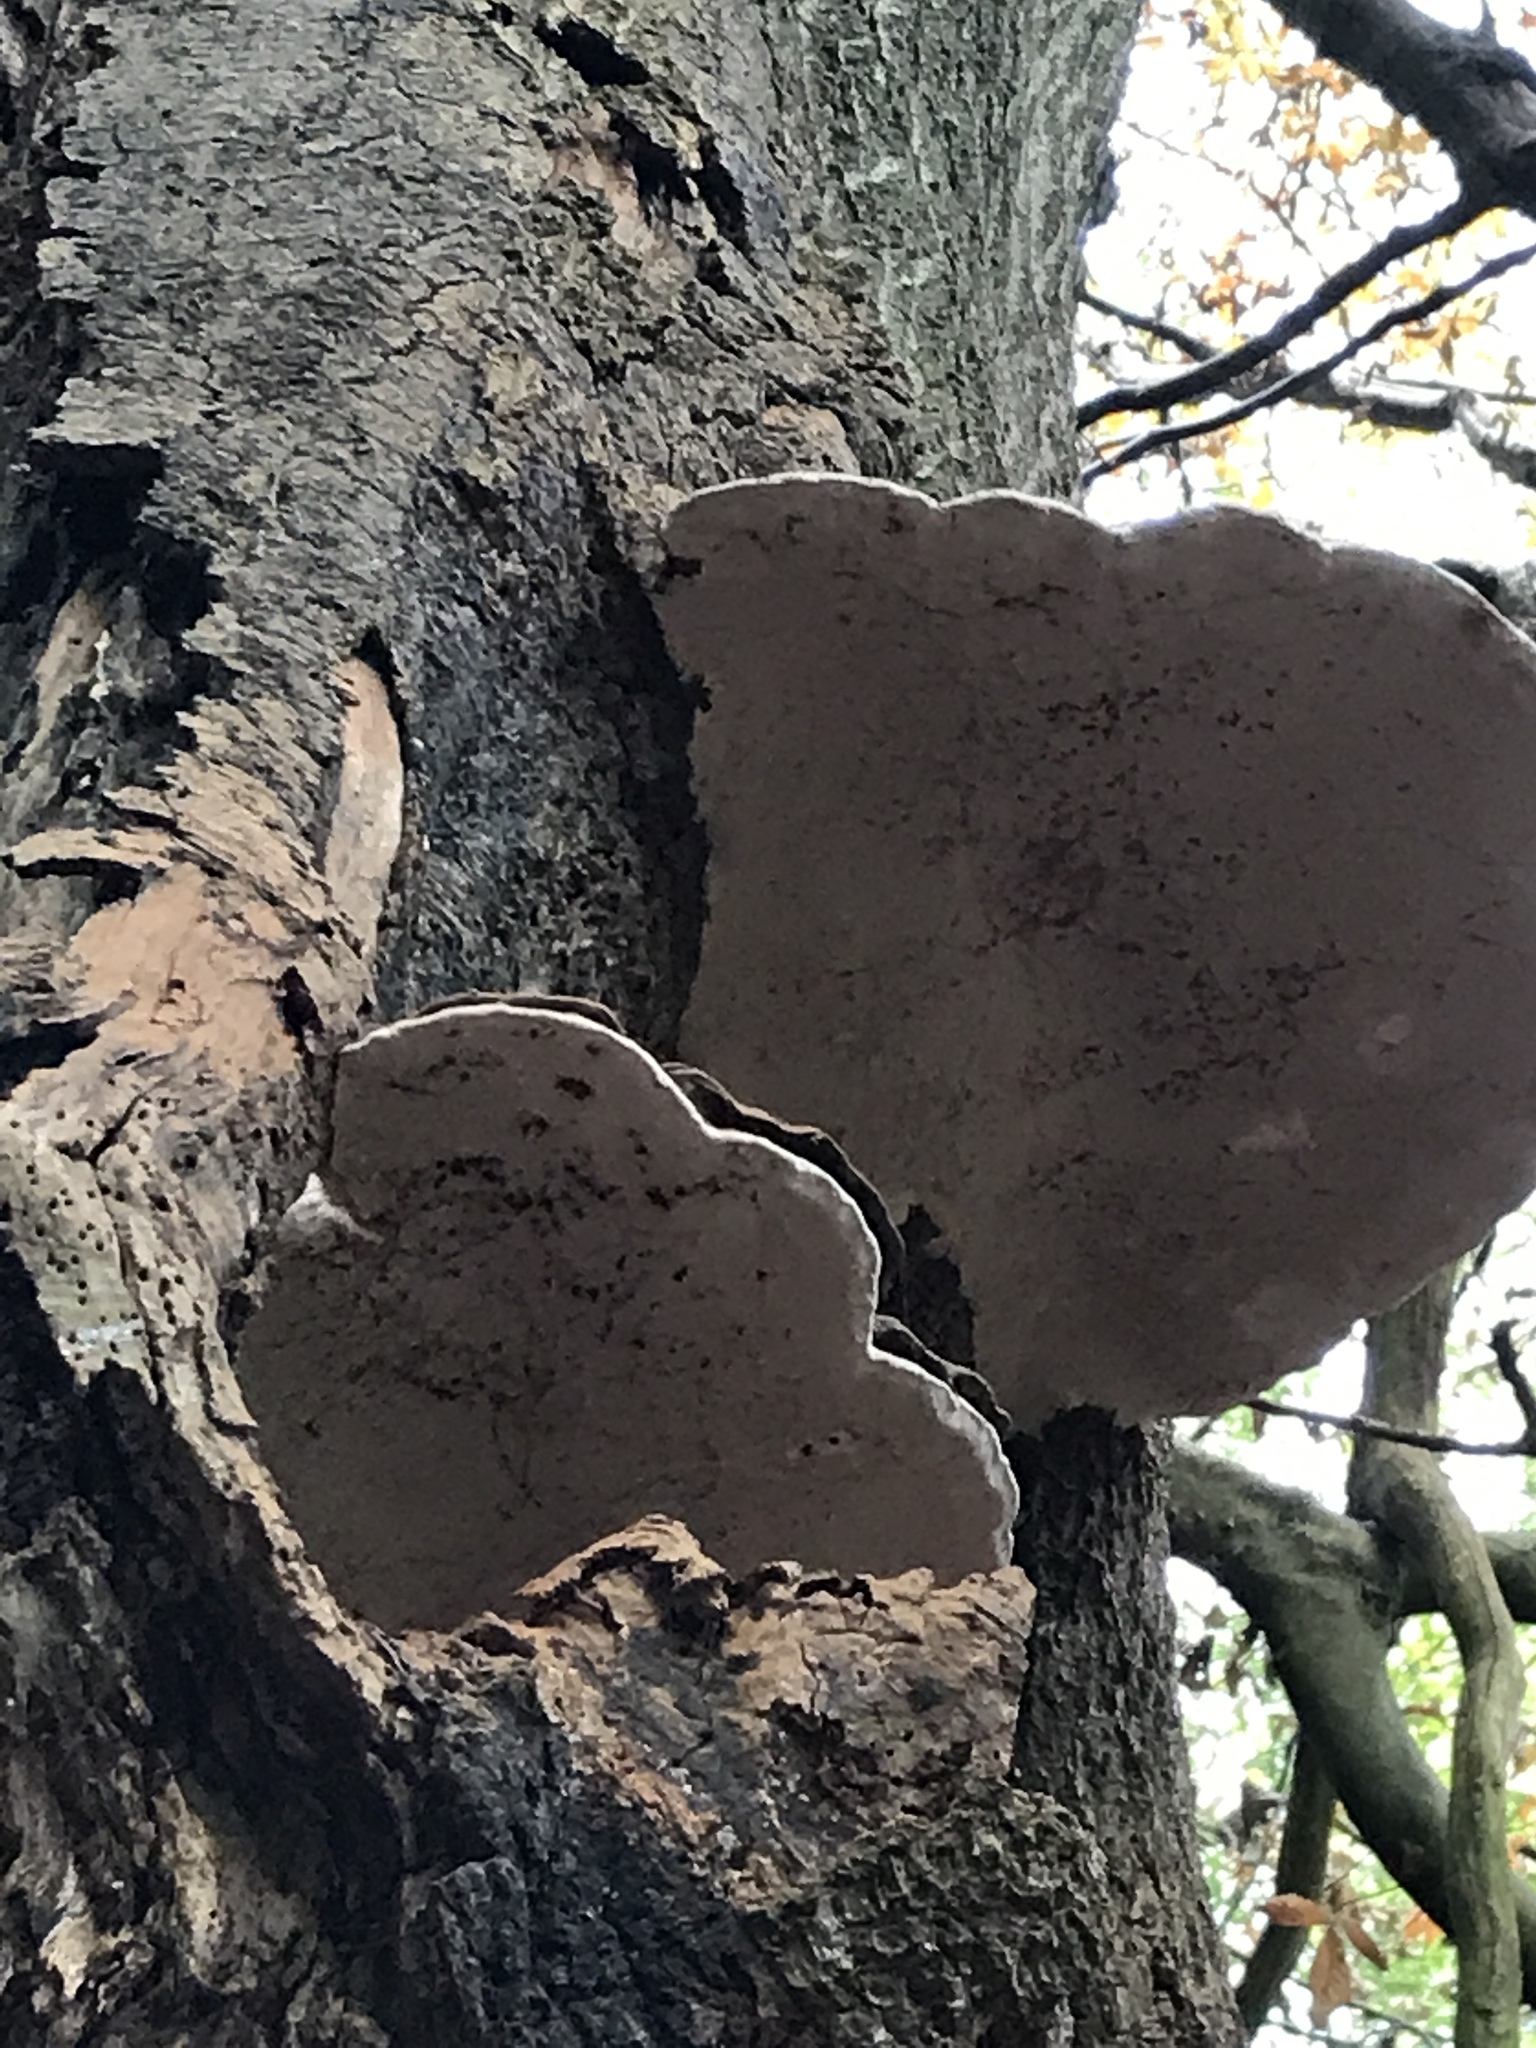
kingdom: Fungi
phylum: Basidiomycota
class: Agaricomycetes
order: Polyporales
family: Polyporaceae
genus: Ganoderma
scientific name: Ganoderma applanatum
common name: Artist's bracket
